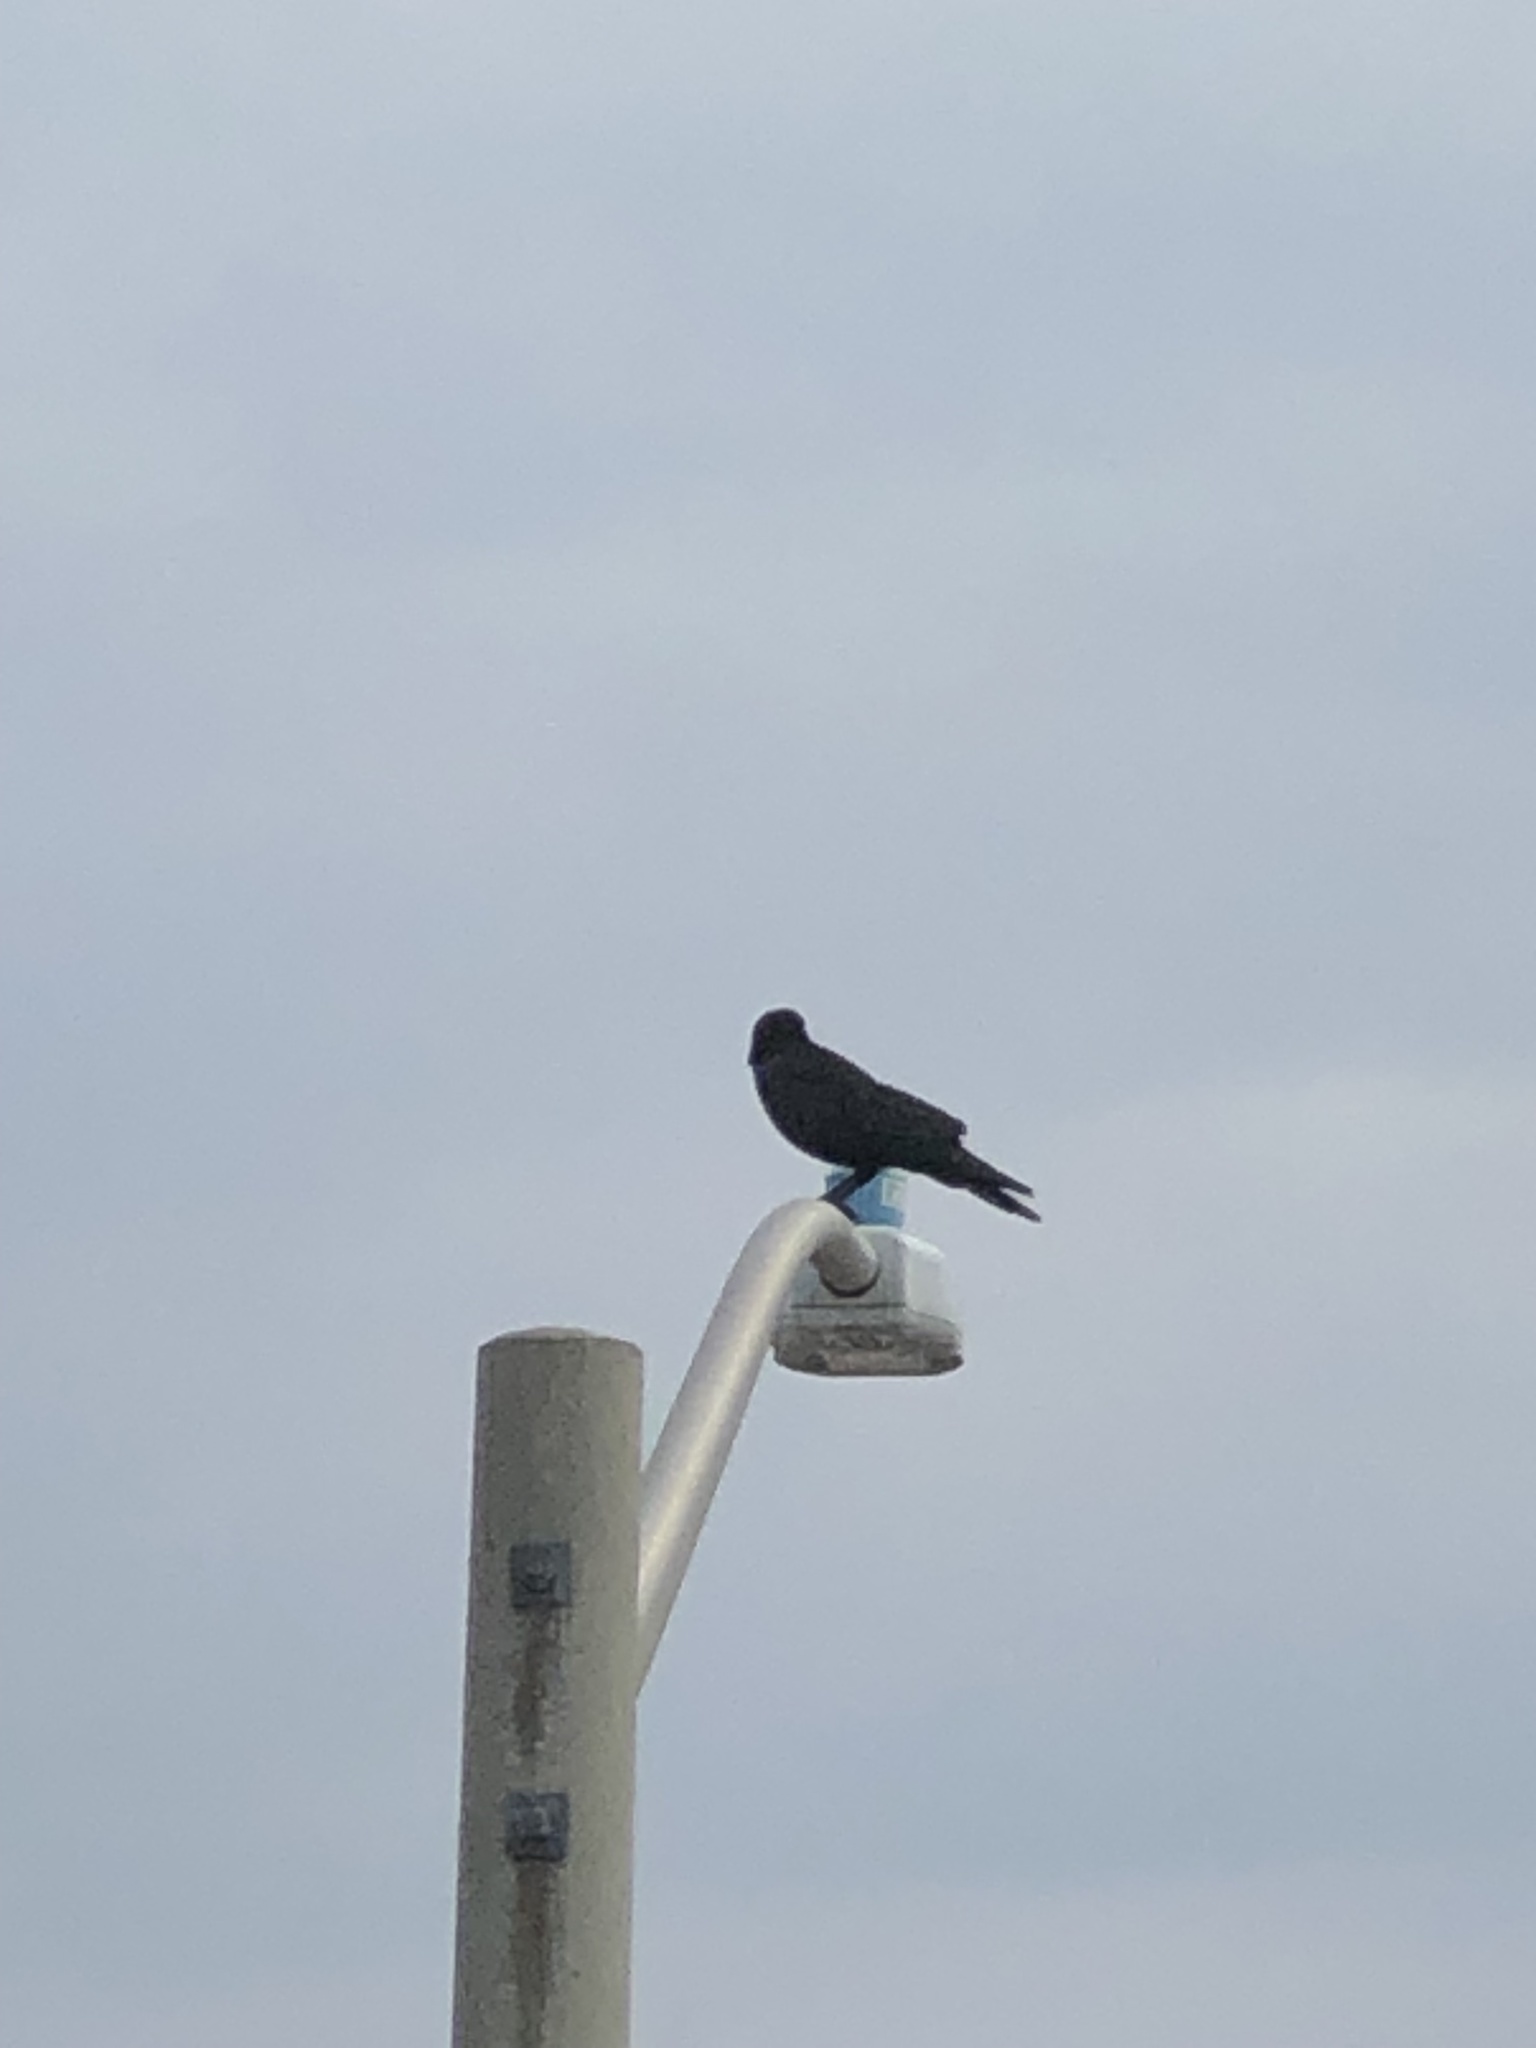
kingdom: Animalia
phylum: Chordata
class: Aves
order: Passeriformes
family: Corvidae
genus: Corvus
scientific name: Corvus brachyrhynchos
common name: American crow
